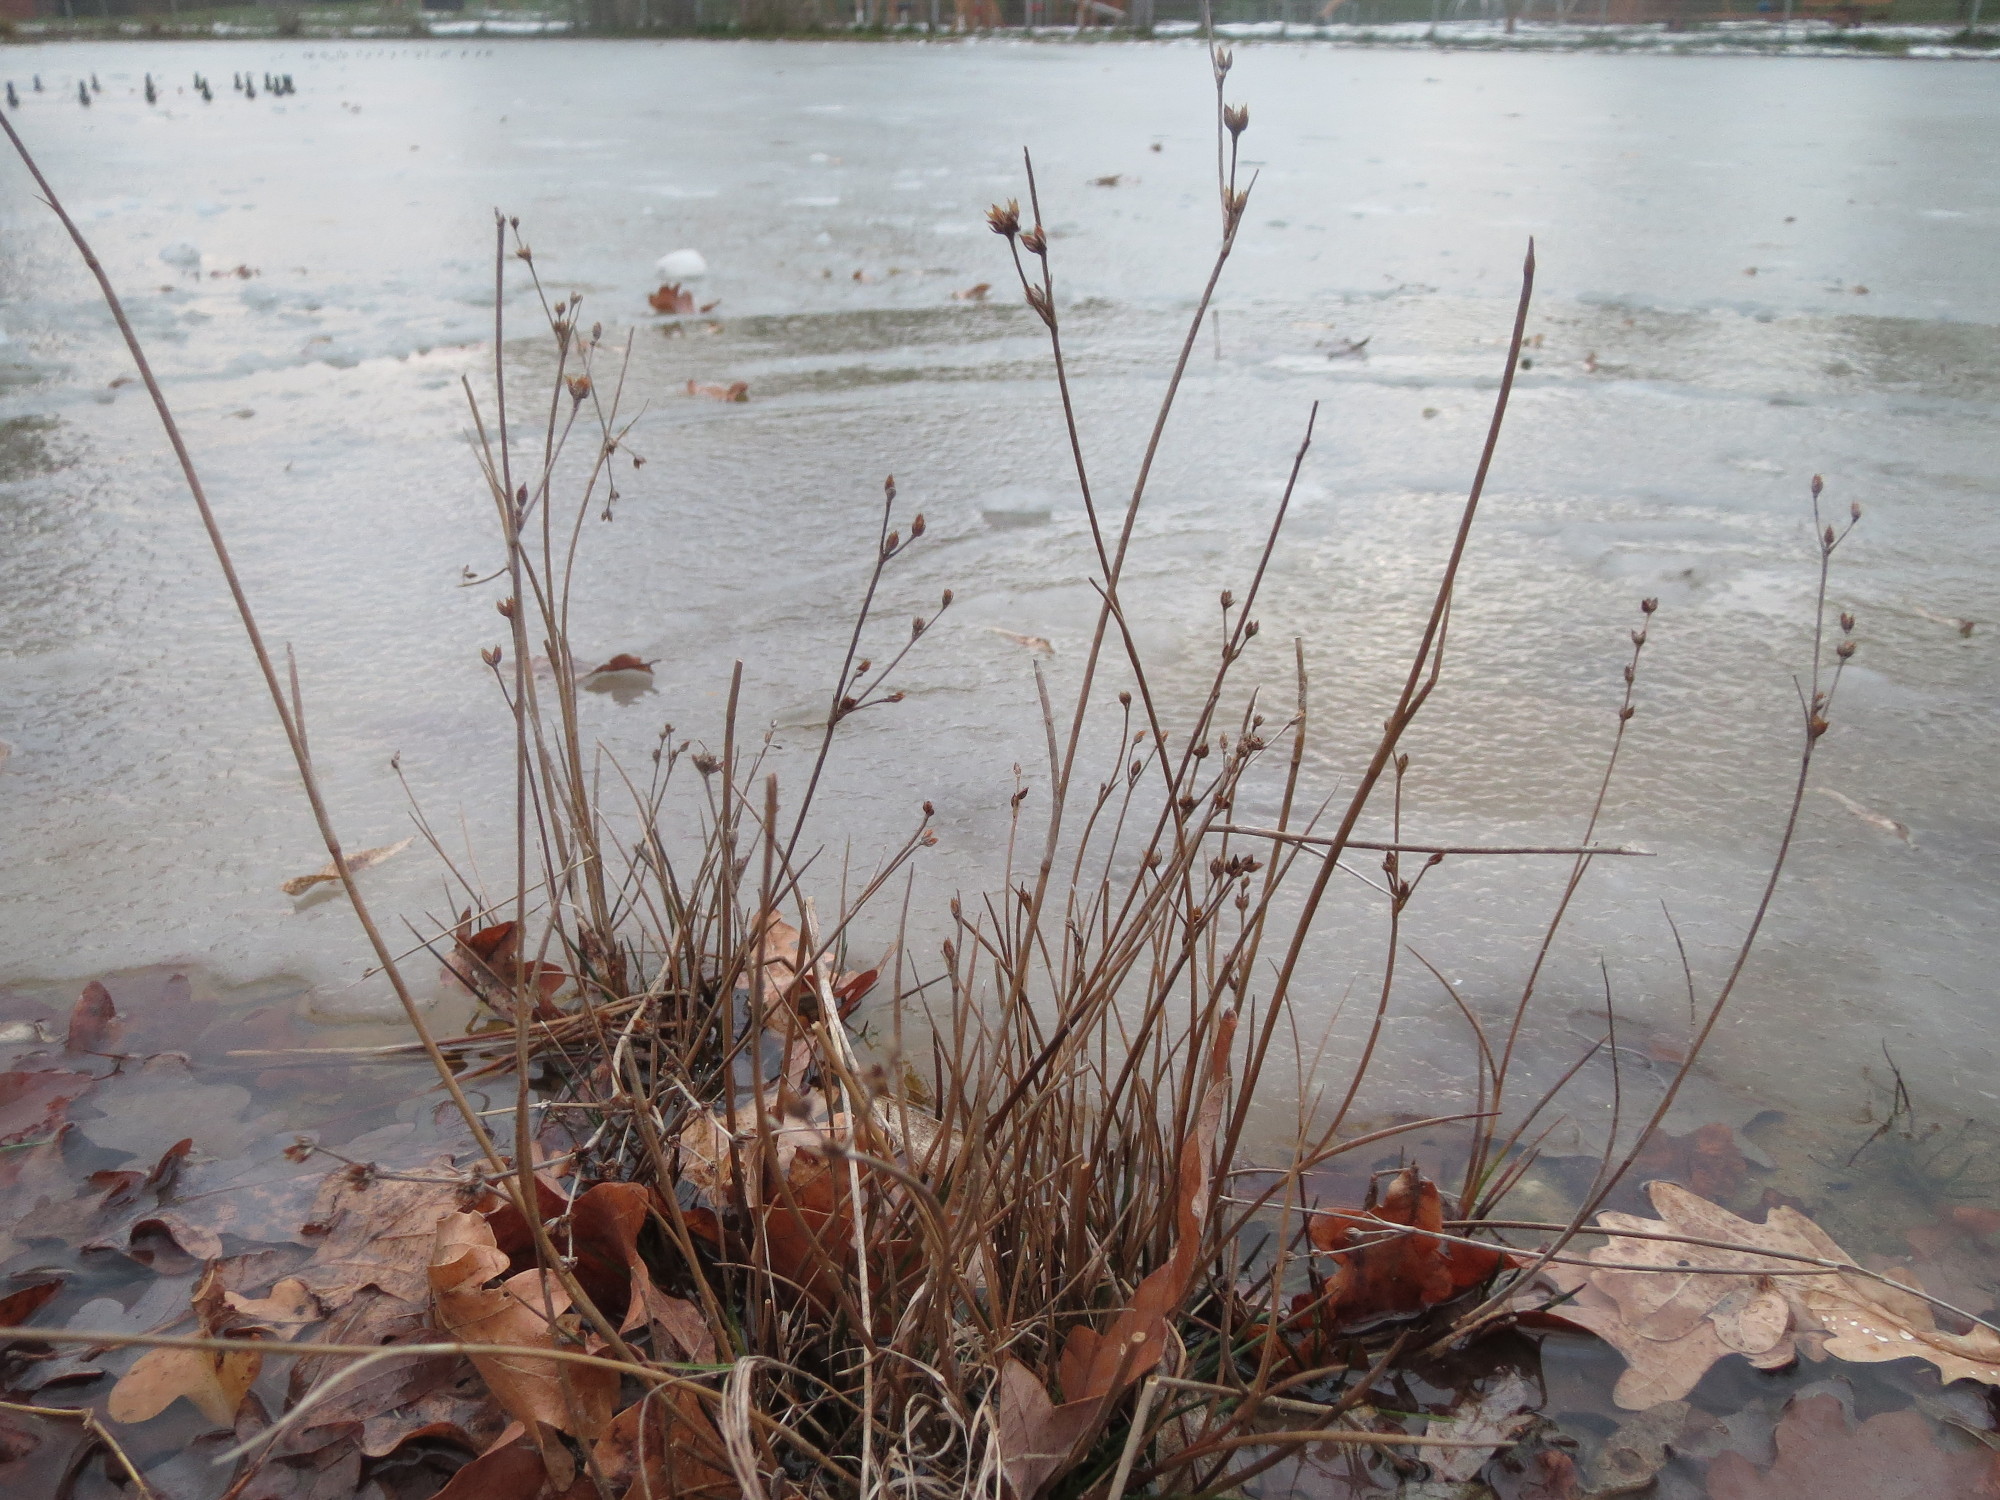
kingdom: Plantae
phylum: Tracheophyta
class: Liliopsida
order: Poales
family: Juncaceae
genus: Juncus
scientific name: Juncus articulatus
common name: Jointed rush
